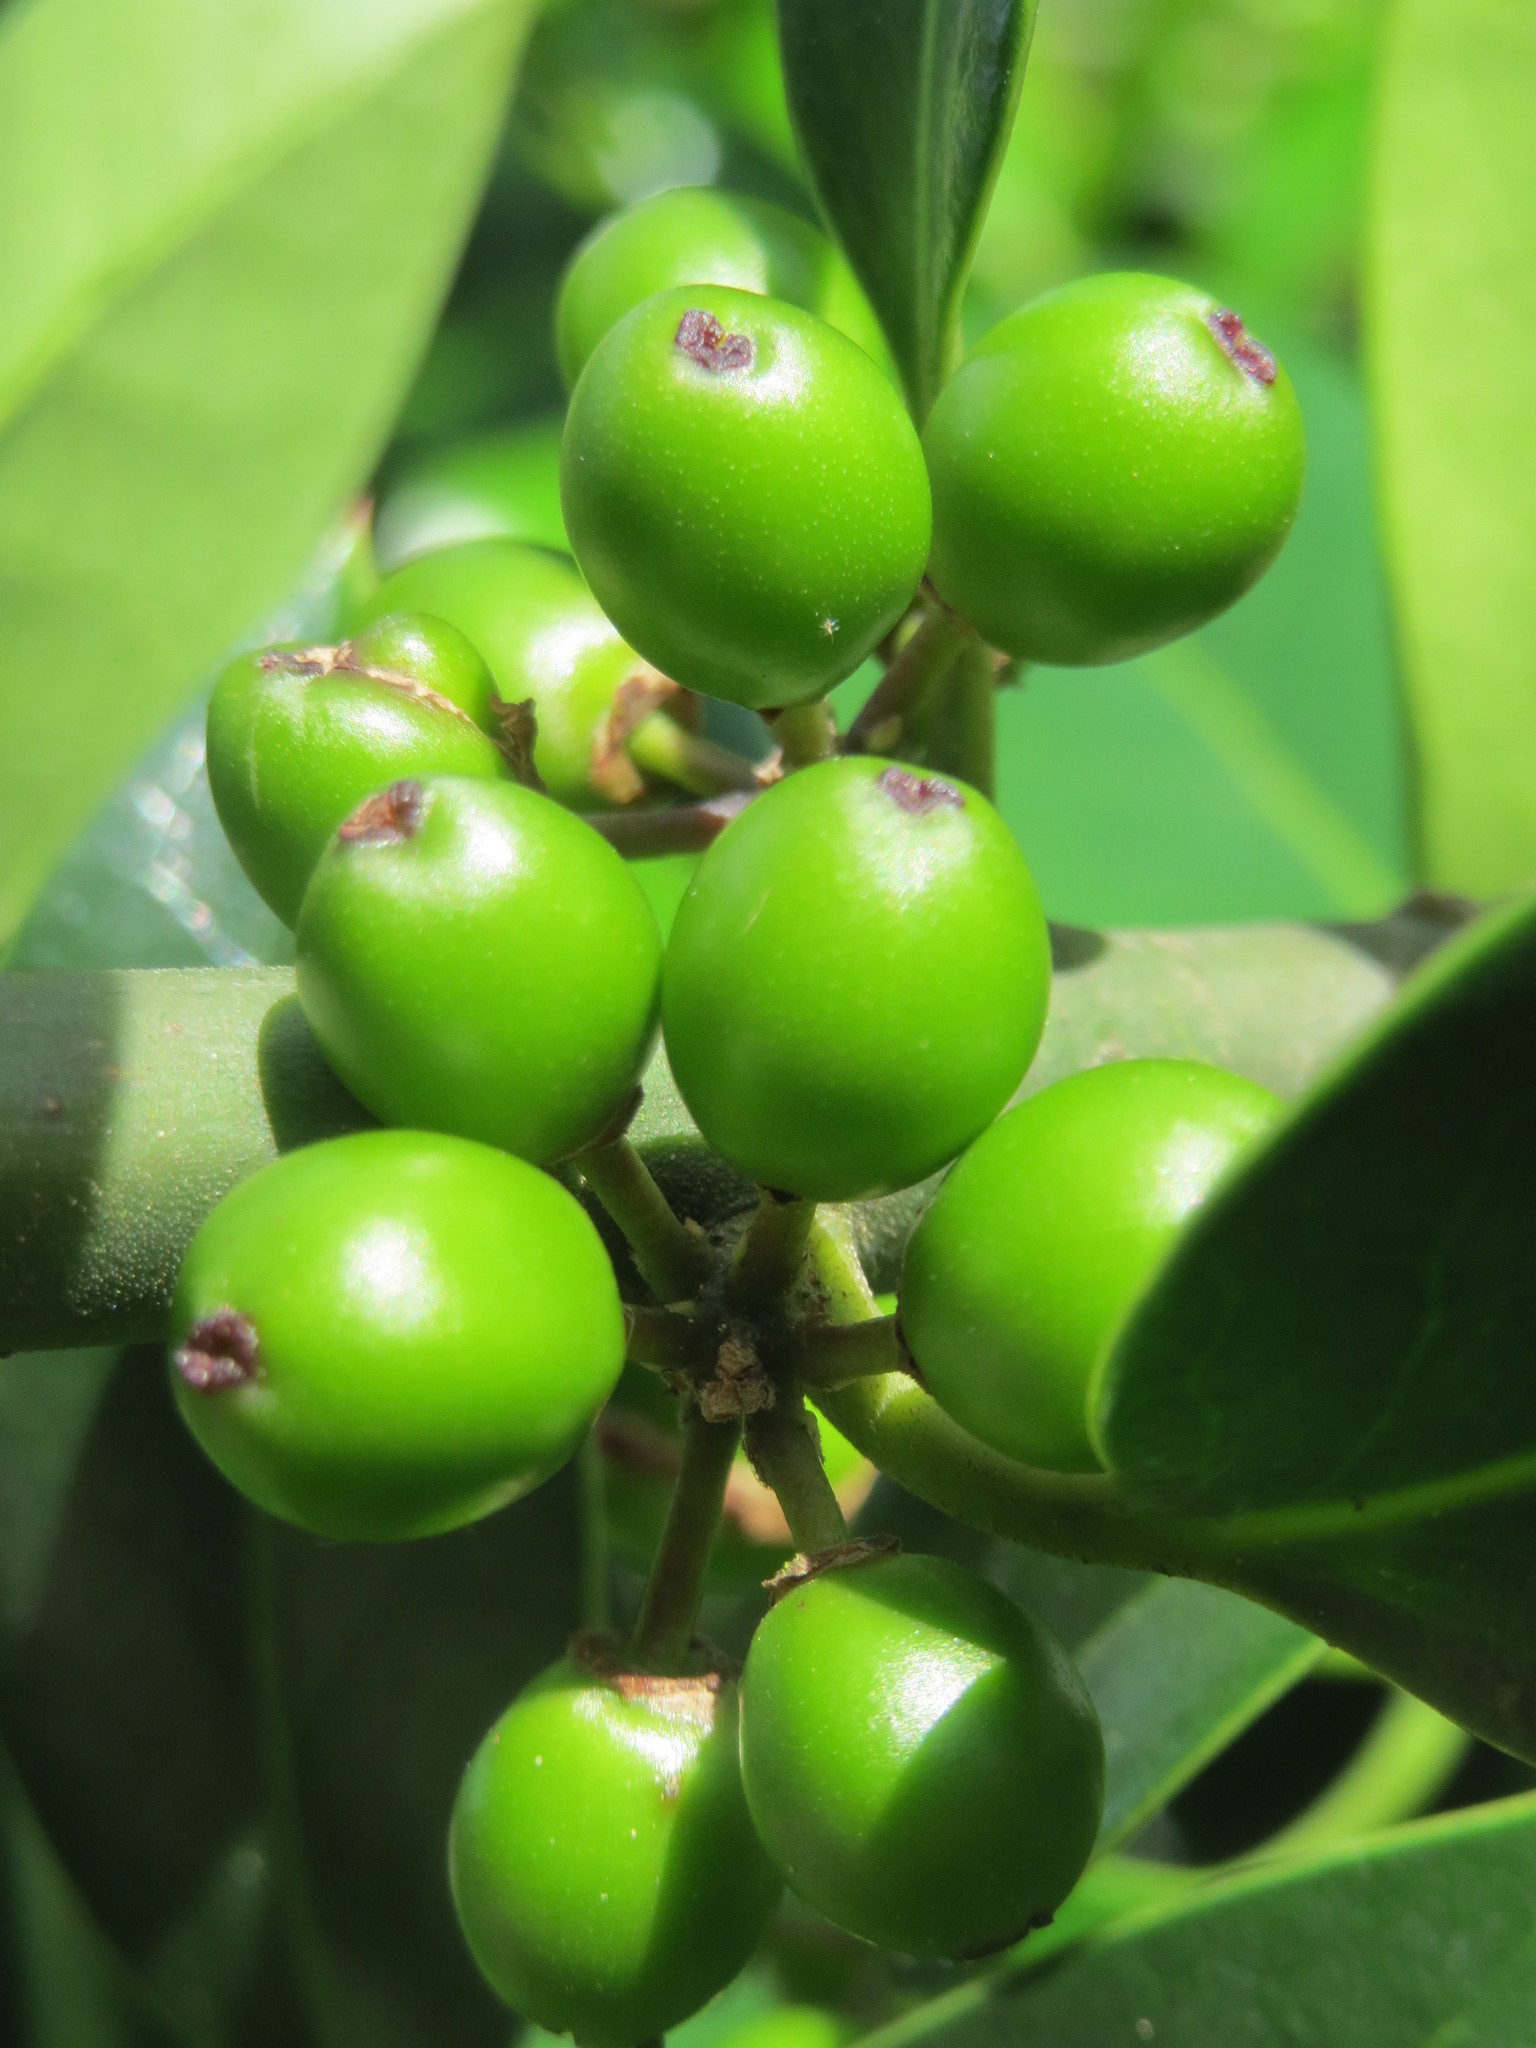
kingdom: Plantae
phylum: Tracheophyta
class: Magnoliopsida
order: Aquifoliales
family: Aquifoliaceae
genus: Ilex
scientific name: Ilex aquifolium
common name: English holly
